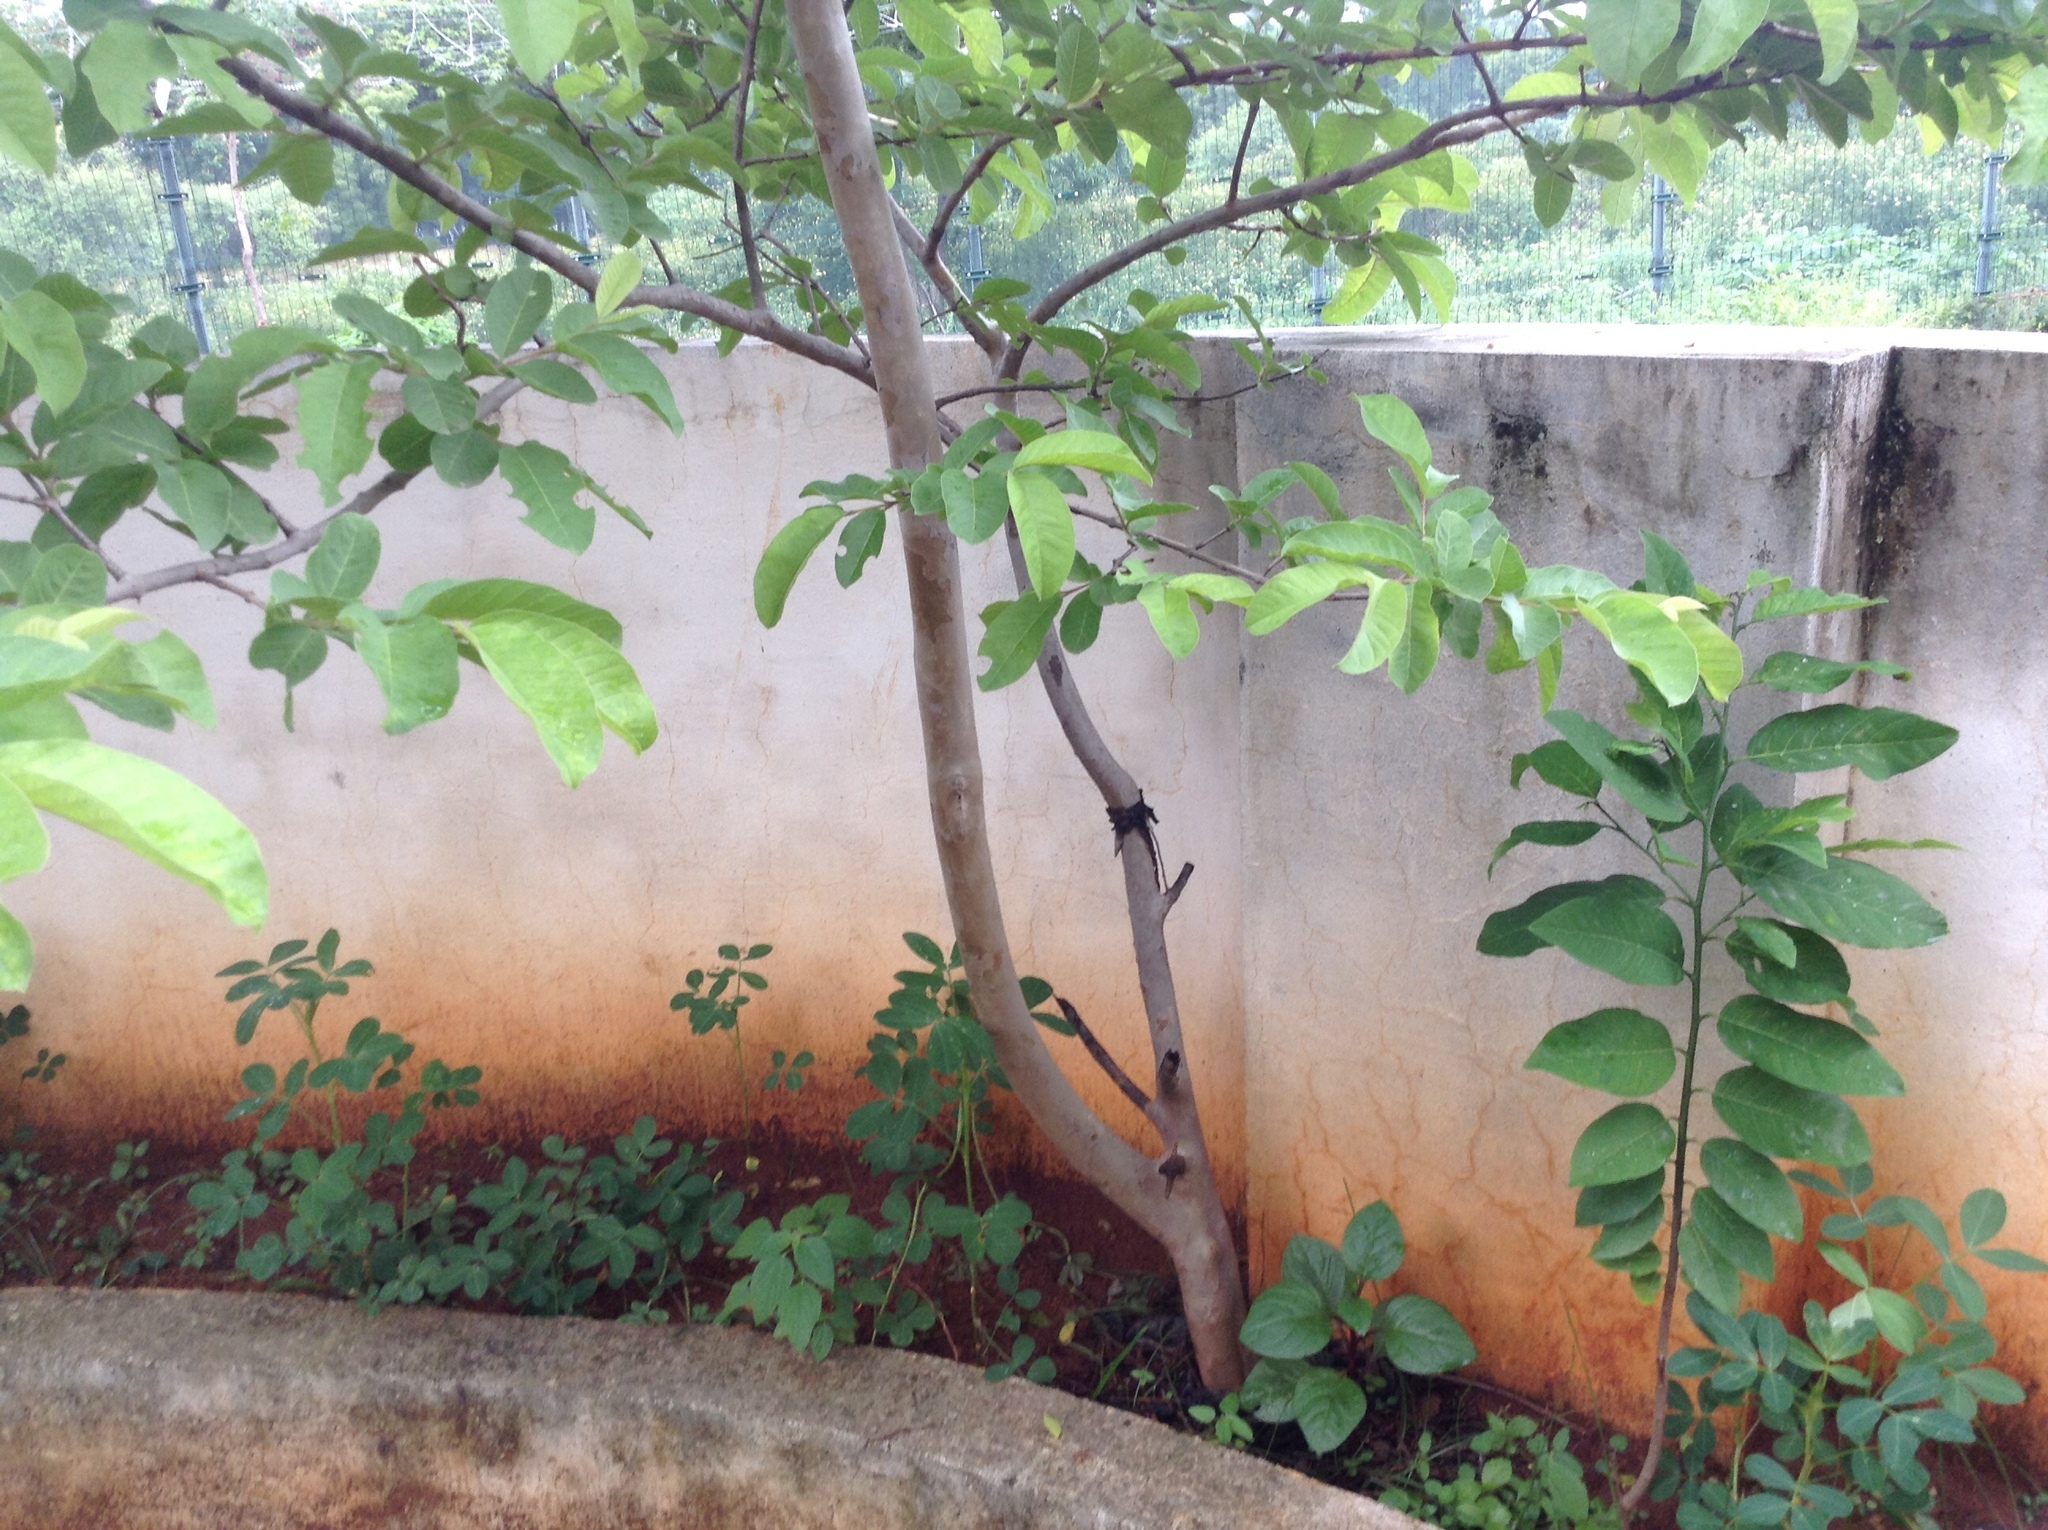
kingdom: Plantae
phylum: Tracheophyta
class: Magnoliopsida
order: Myrtales
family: Myrtaceae
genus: Psidium
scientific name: Psidium guajava
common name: Guava
